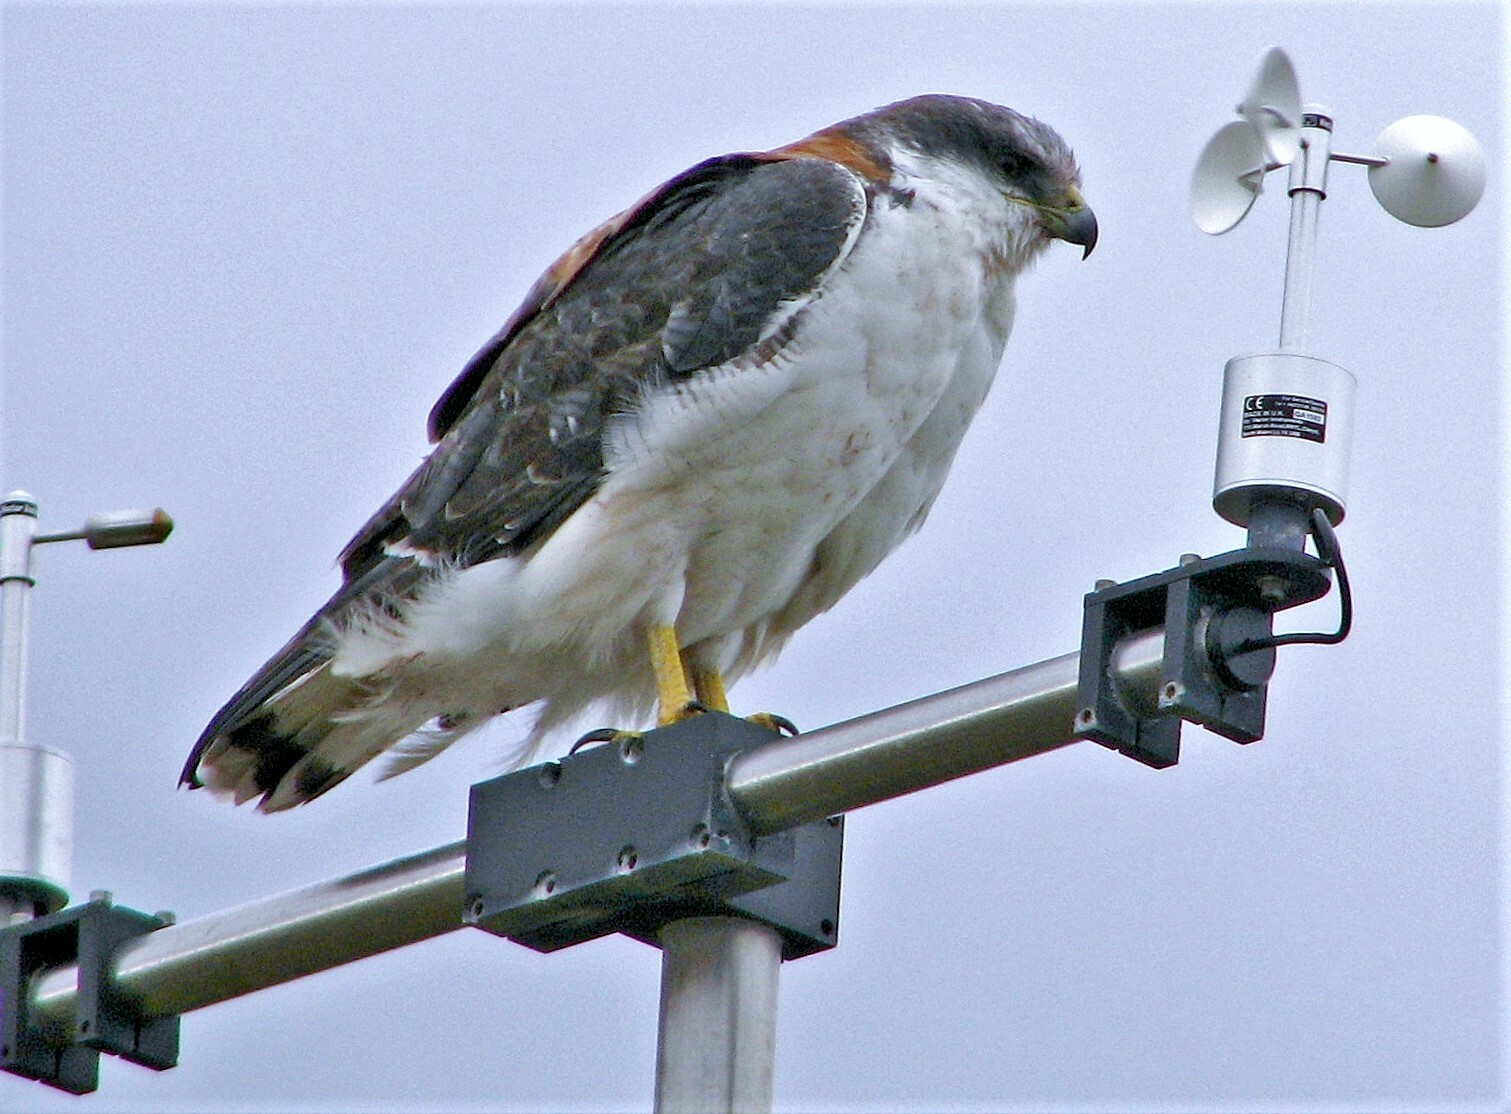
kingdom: Animalia
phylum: Chordata
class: Aves
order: Accipitriformes
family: Accipitridae
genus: Buteo
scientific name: Buteo polyosoma
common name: Variable hawk
